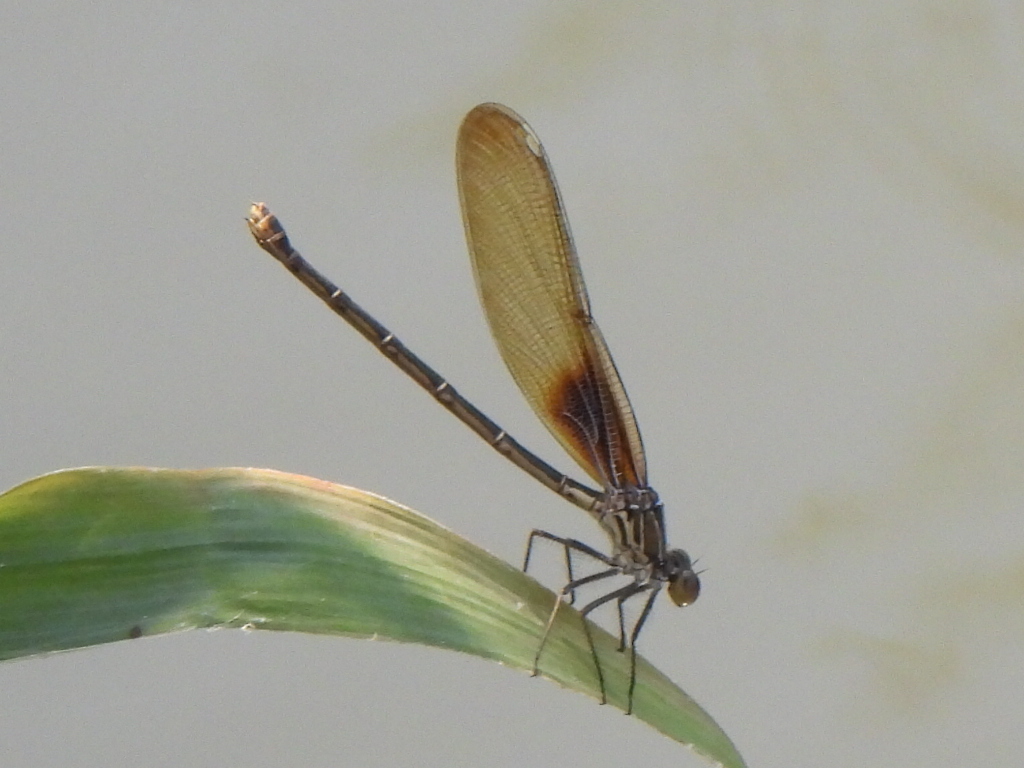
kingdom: Animalia
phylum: Arthropoda
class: Insecta
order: Odonata
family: Calopterygidae
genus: Hetaerina
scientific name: Hetaerina americana
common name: American rubyspot
